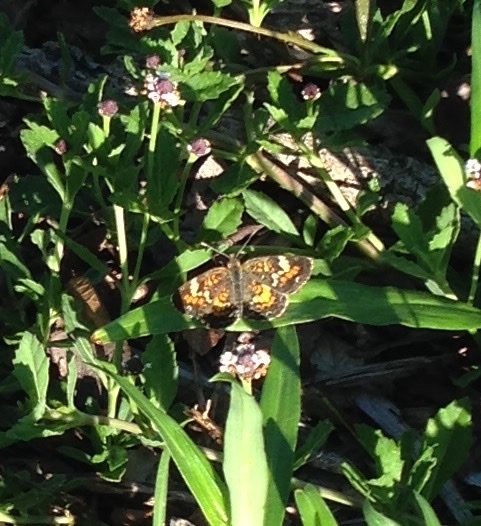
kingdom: Animalia
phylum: Arthropoda
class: Insecta
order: Lepidoptera
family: Nymphalidae
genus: Phyciodes
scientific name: Phyciodes phaon
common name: Phaon crescent
